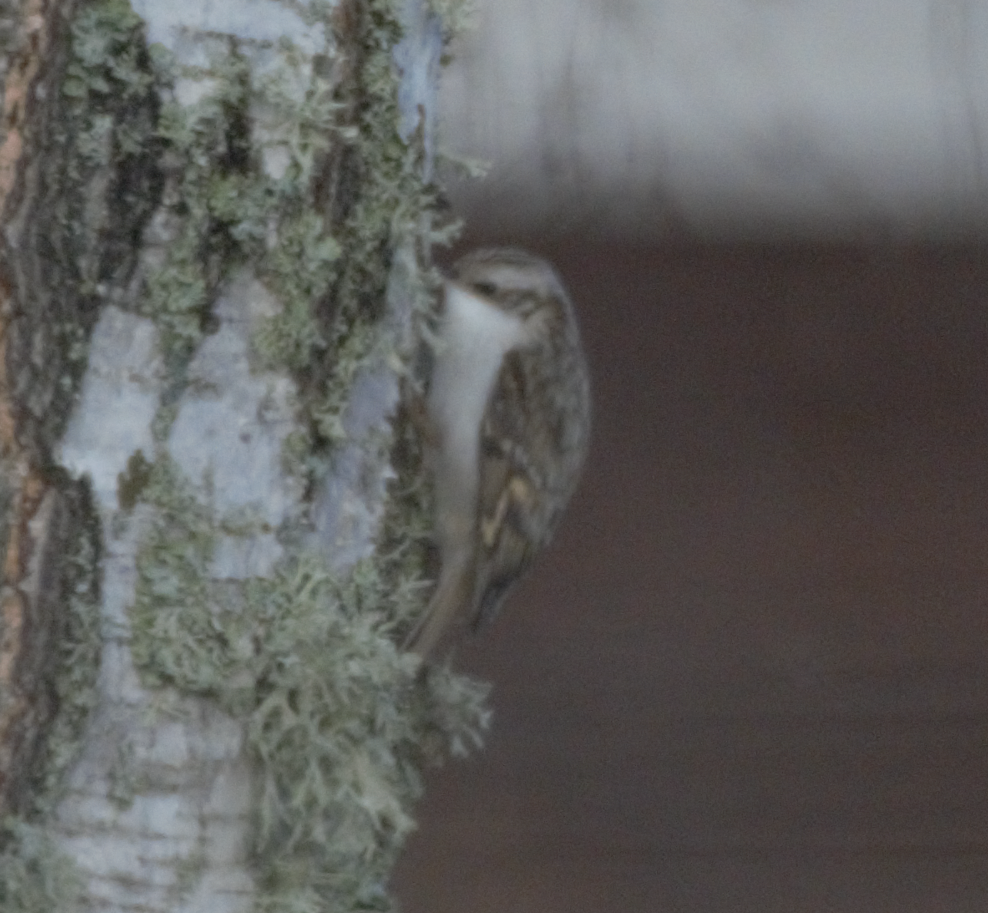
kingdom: Animalia
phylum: Chordata
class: Aves
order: Passeriformes
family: Certhiidae
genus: Certhia
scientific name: Certhia familiaris
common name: Eurasian treecreeper
